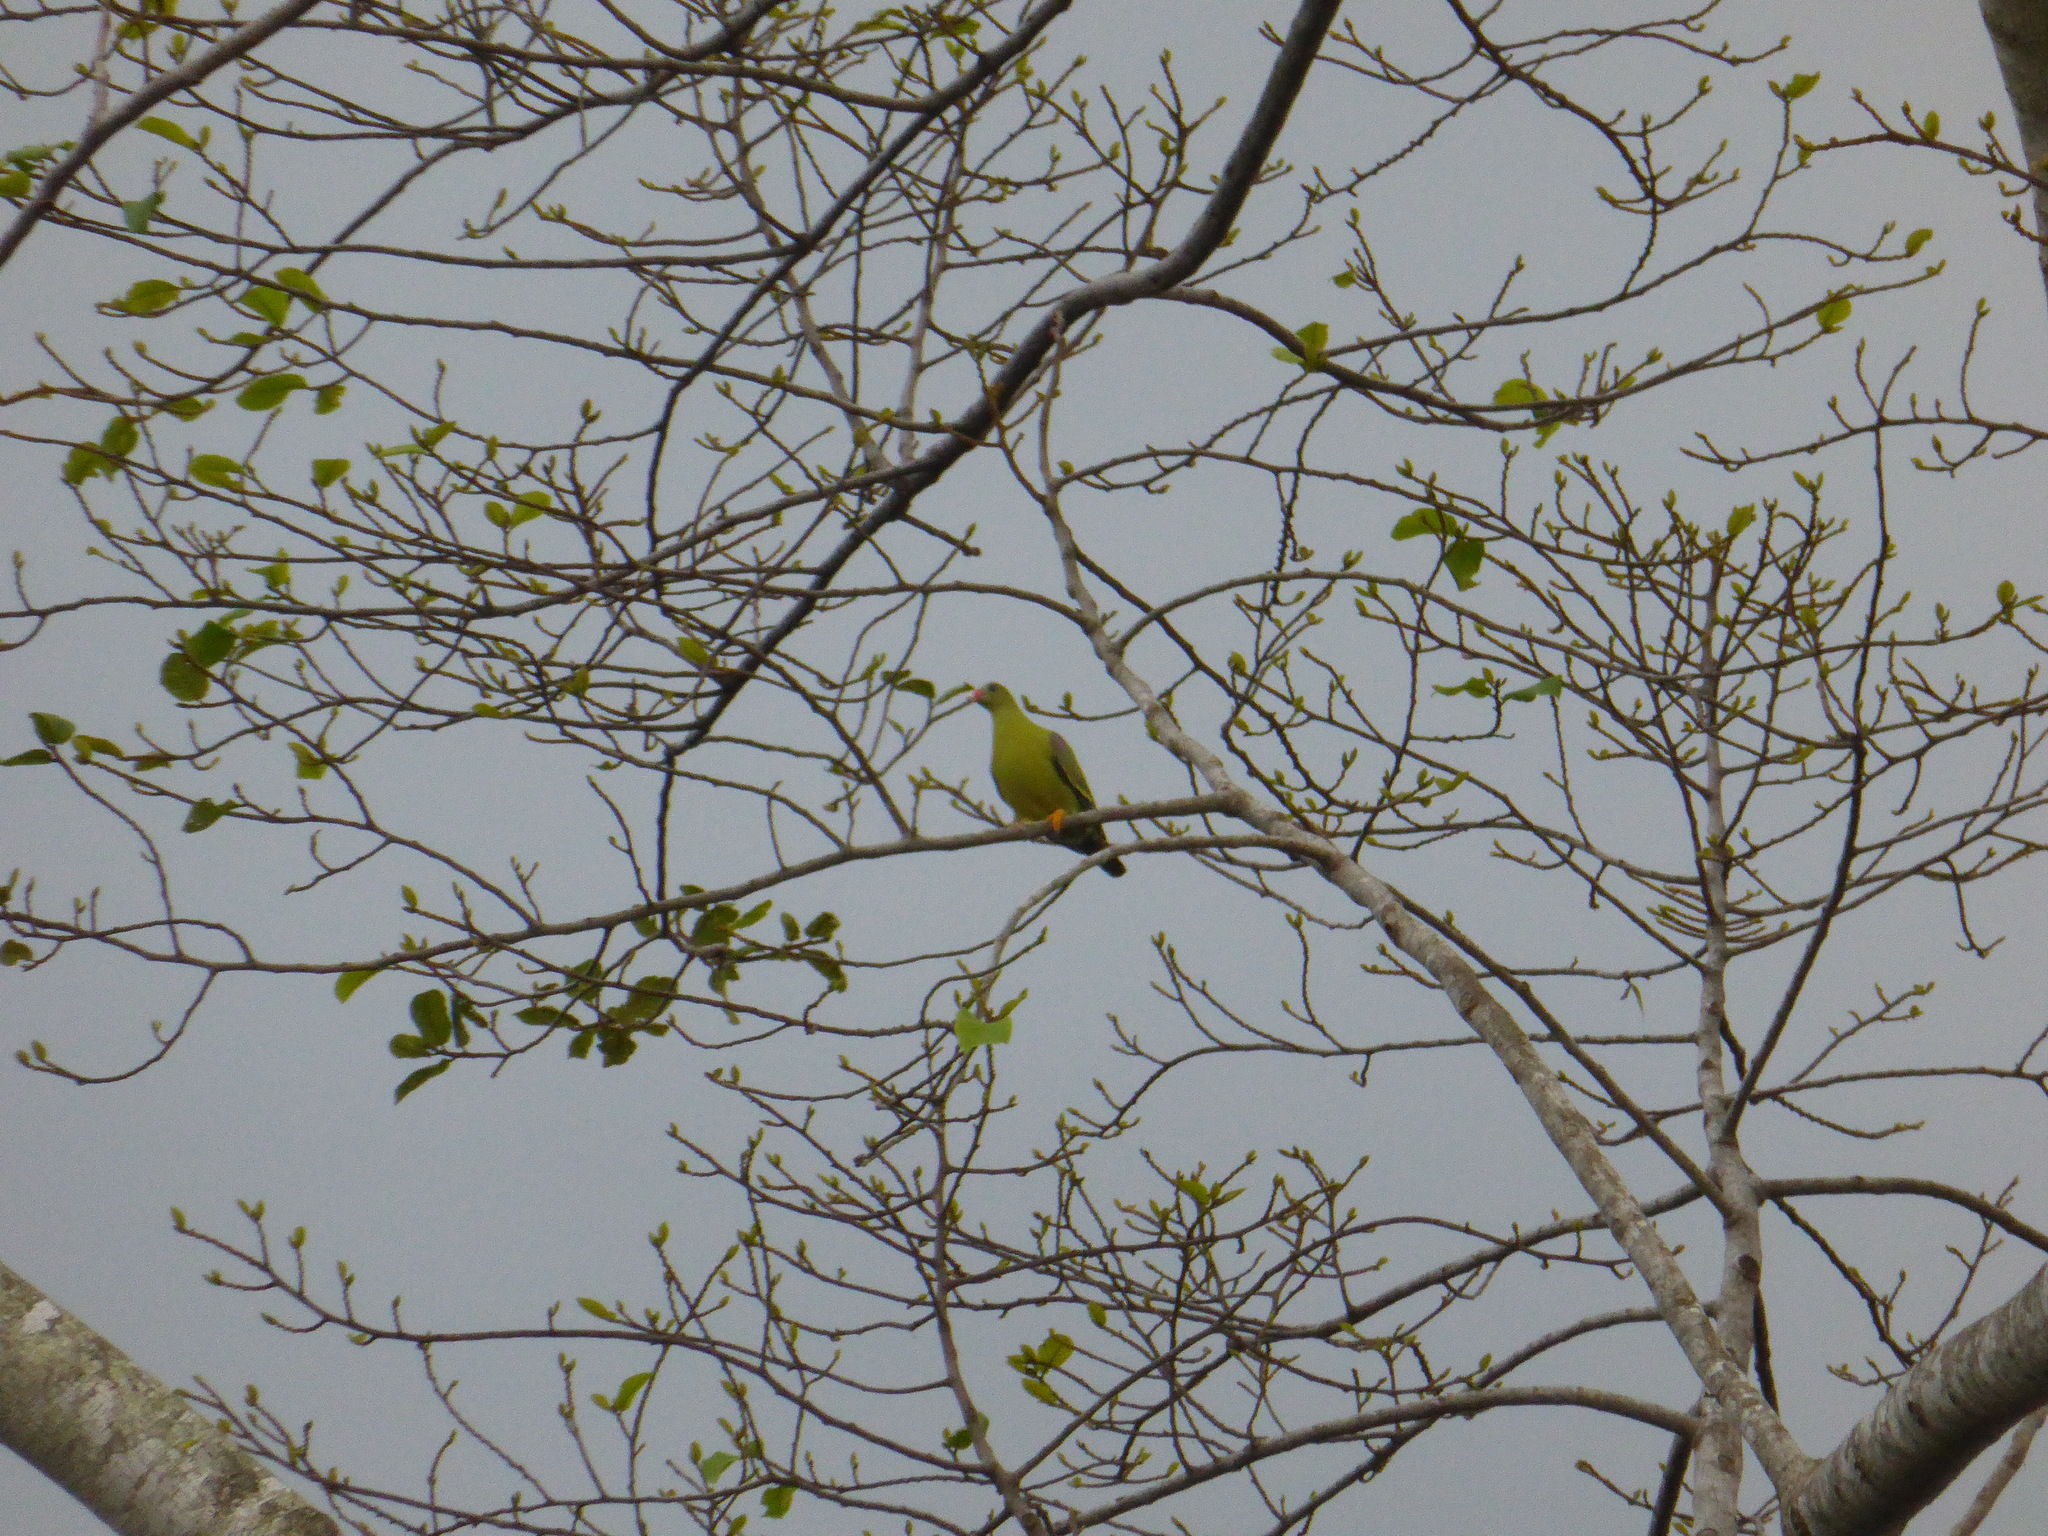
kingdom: Animalia
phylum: Chordata
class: Aves
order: Columbiformes
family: Columbidae
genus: Treron
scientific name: Treron calvus
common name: African green pigeon
